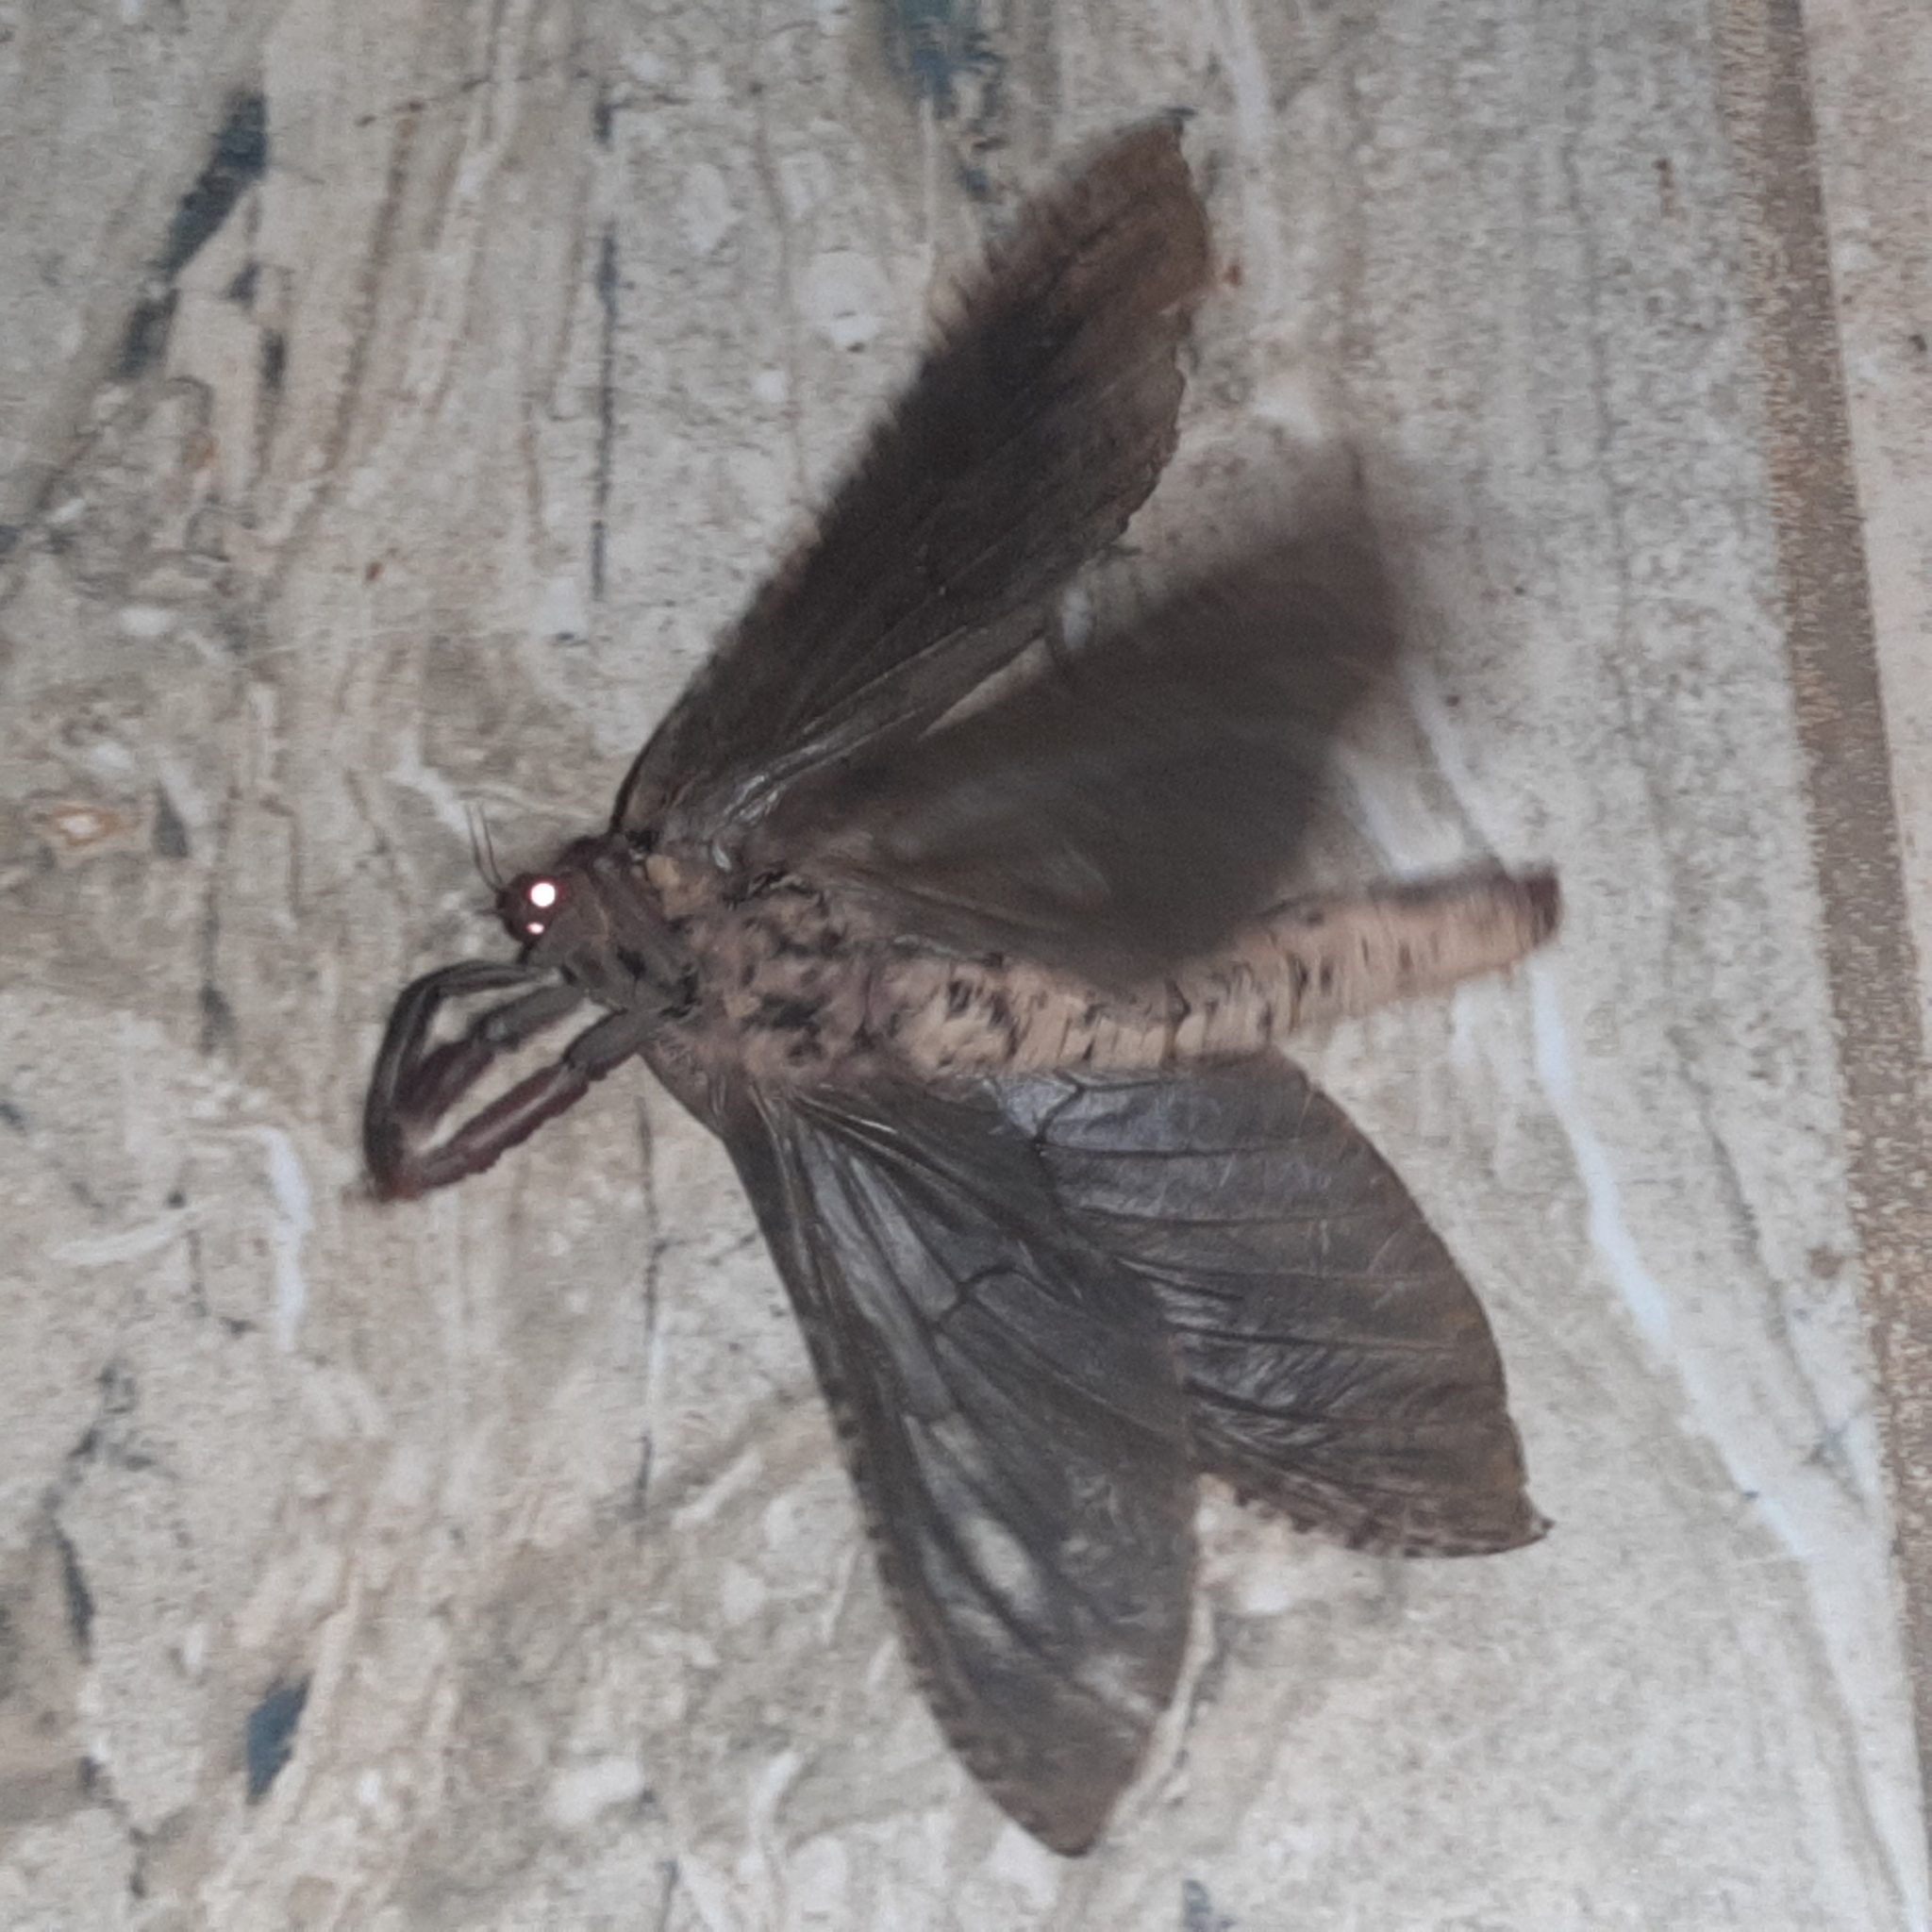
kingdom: Animalia
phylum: Arthropoda
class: Insecta
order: Lepidoptera
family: Hepialidae
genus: Phassus
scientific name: Phassus n-signatus
